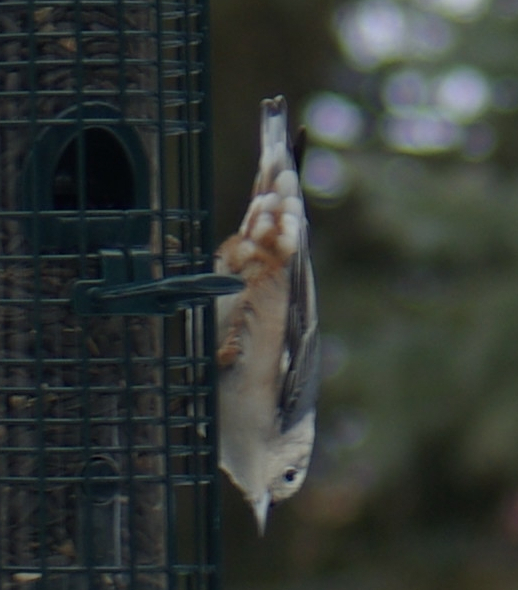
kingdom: Animalia
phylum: Chordata
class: Aves
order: Passeriformes
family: Sittidae
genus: Sitta
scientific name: Sitta carolinensis
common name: White-breasted nuthatch
